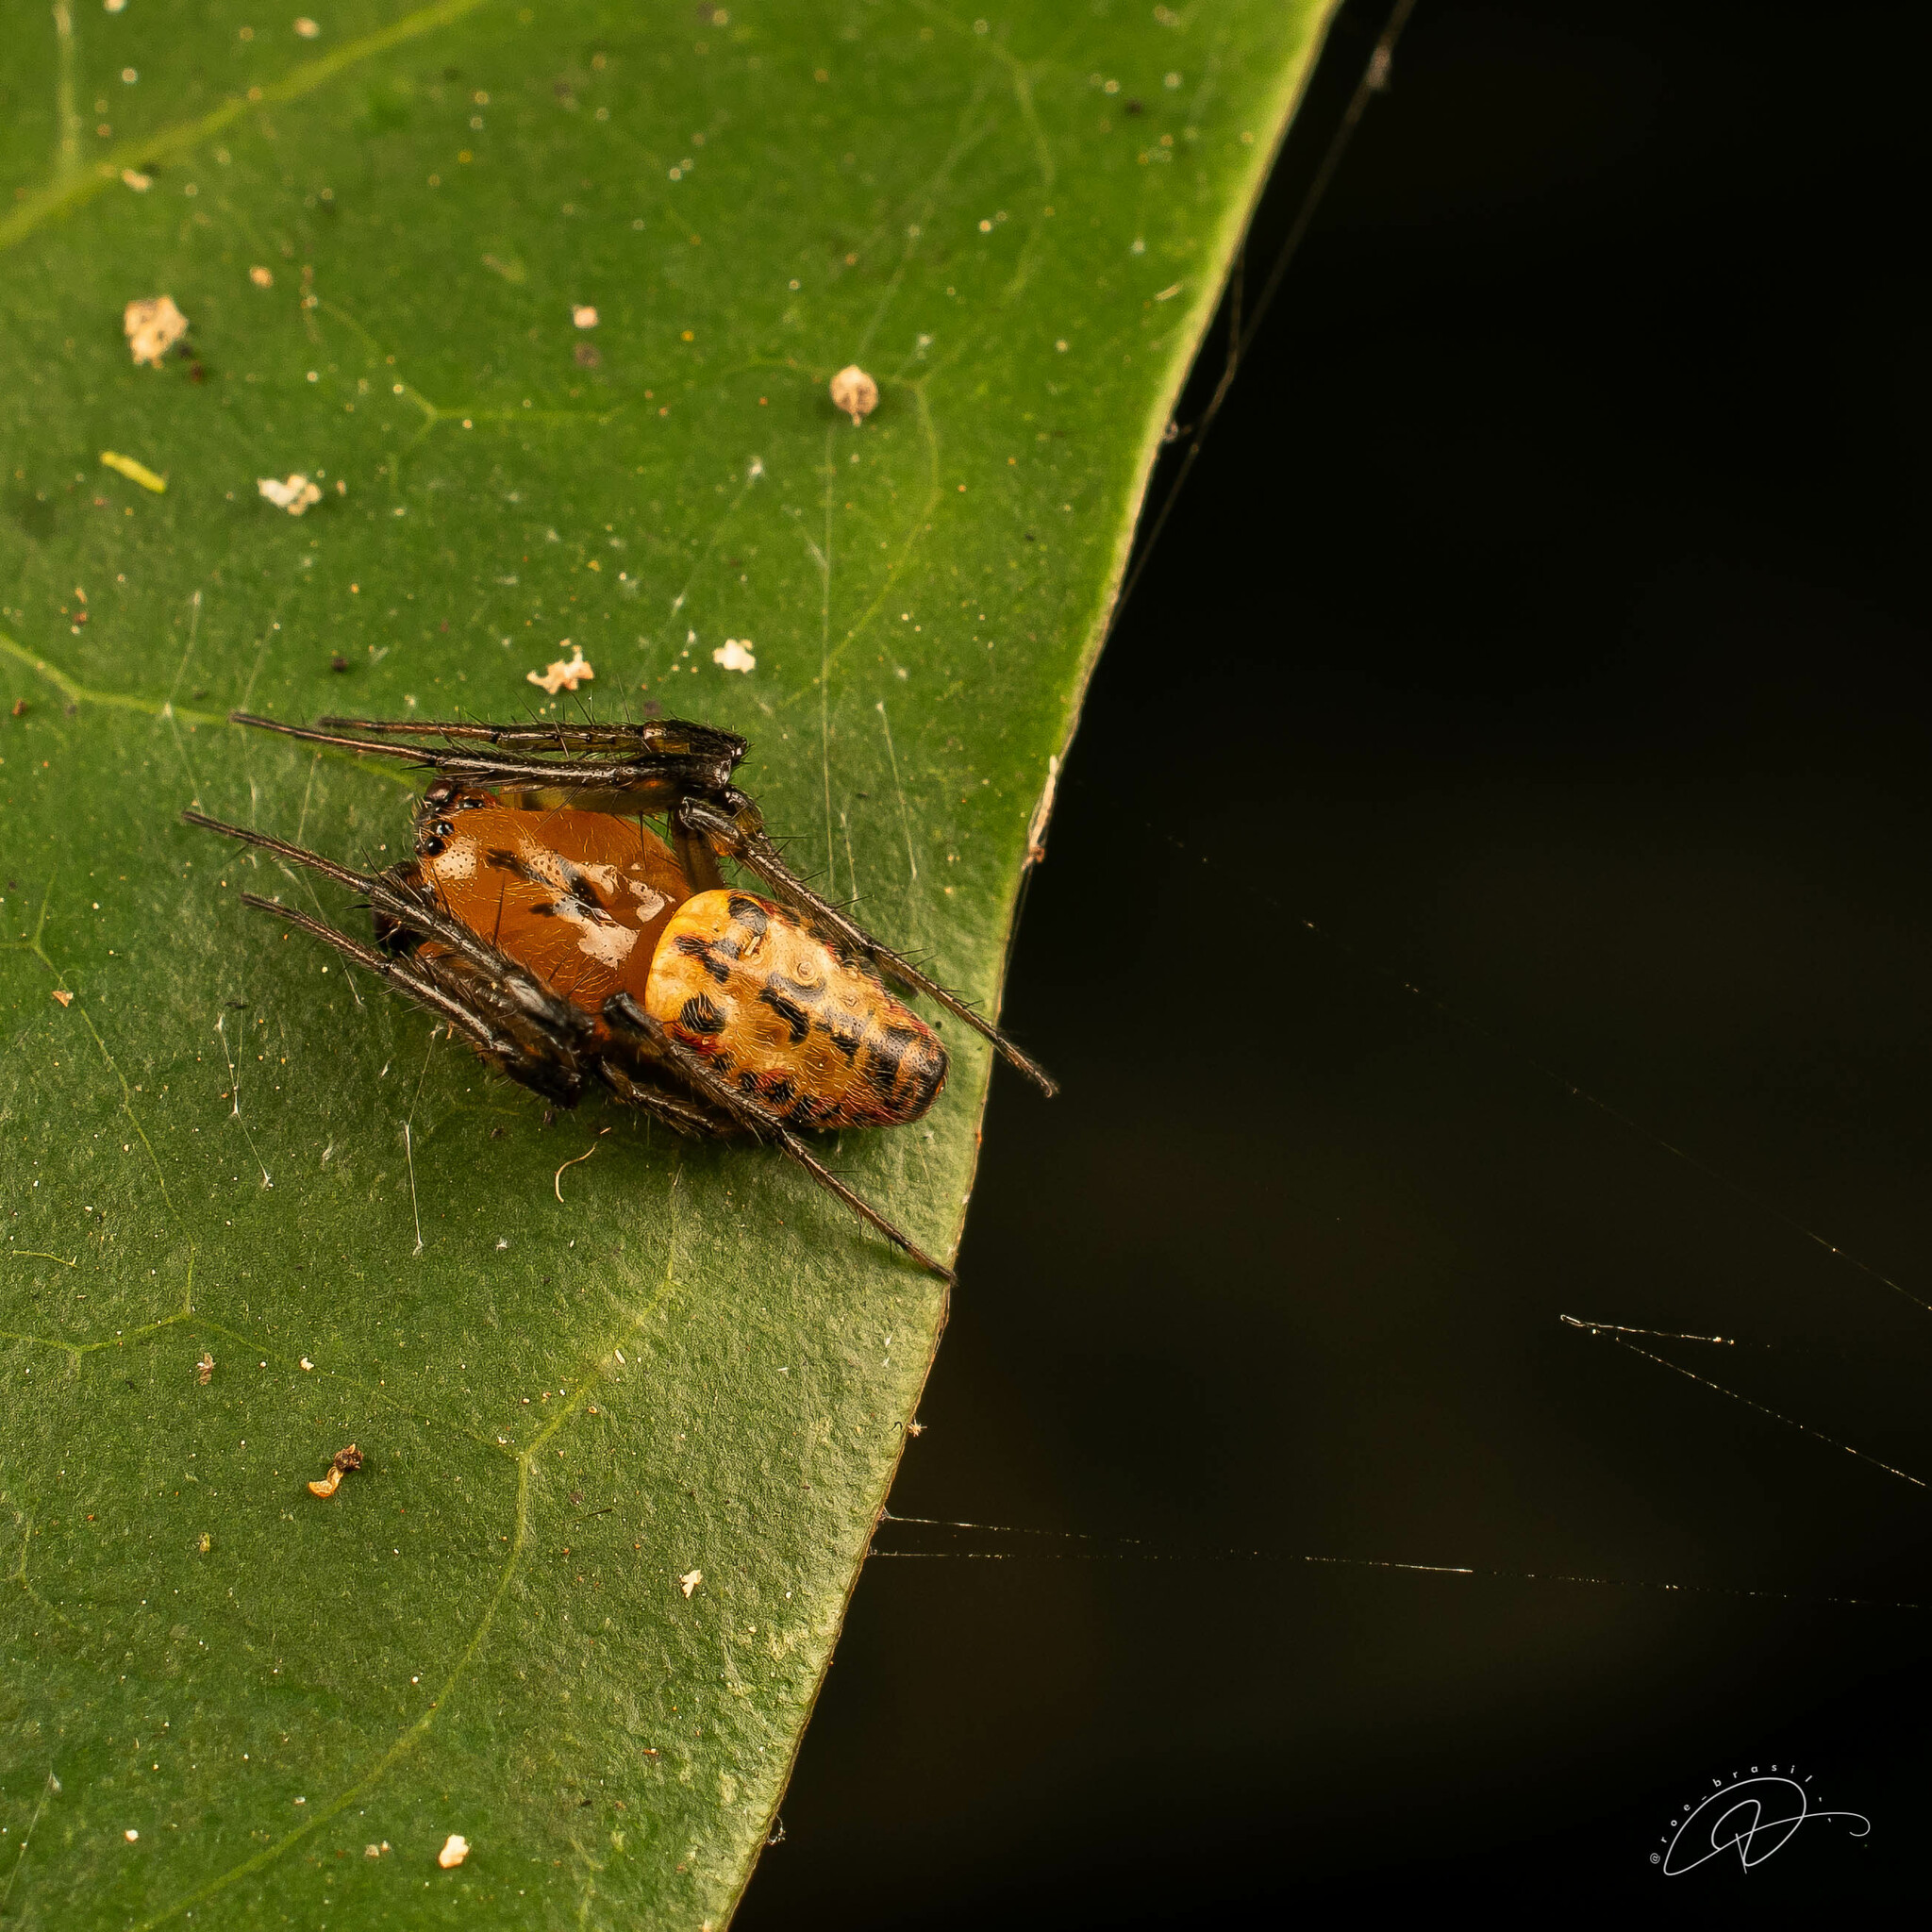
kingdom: Animalia
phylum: Arthropoda
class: Arachnida
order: Araneae
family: Araneidae
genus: Alpaida
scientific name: Alpaida scriba
